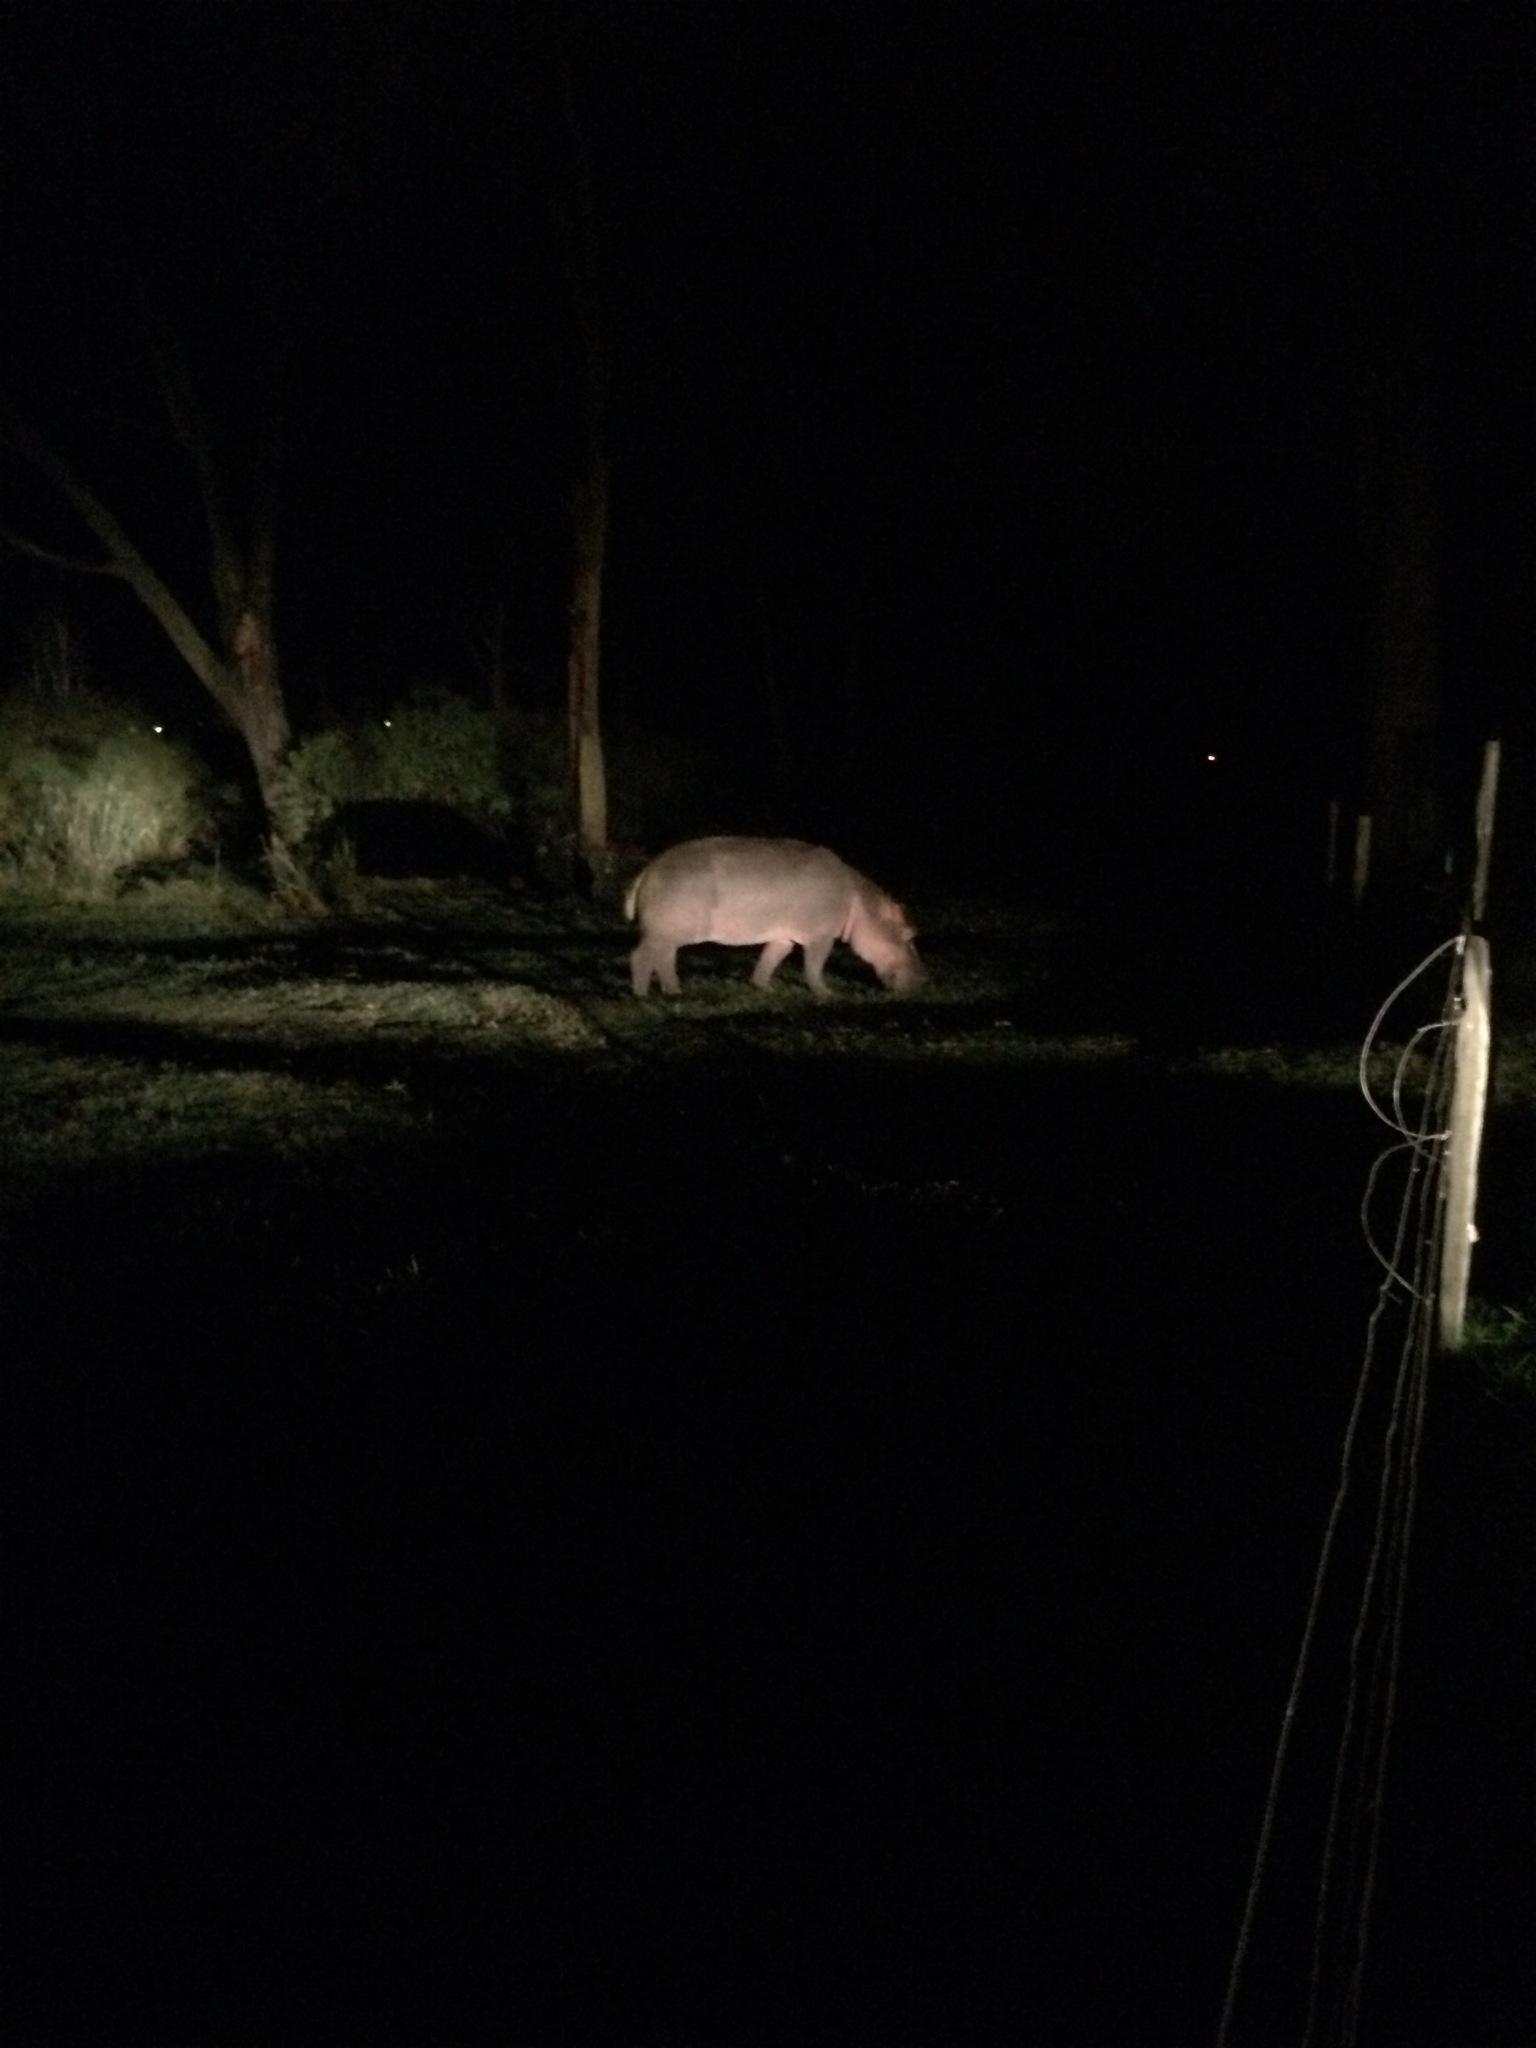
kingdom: Animalia
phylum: Chordata
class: Mammalia
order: Artiodactyla
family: Hippopotamidae
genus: Hippopotamus
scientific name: Hippopotamus amphibius
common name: Common hippopotamus
